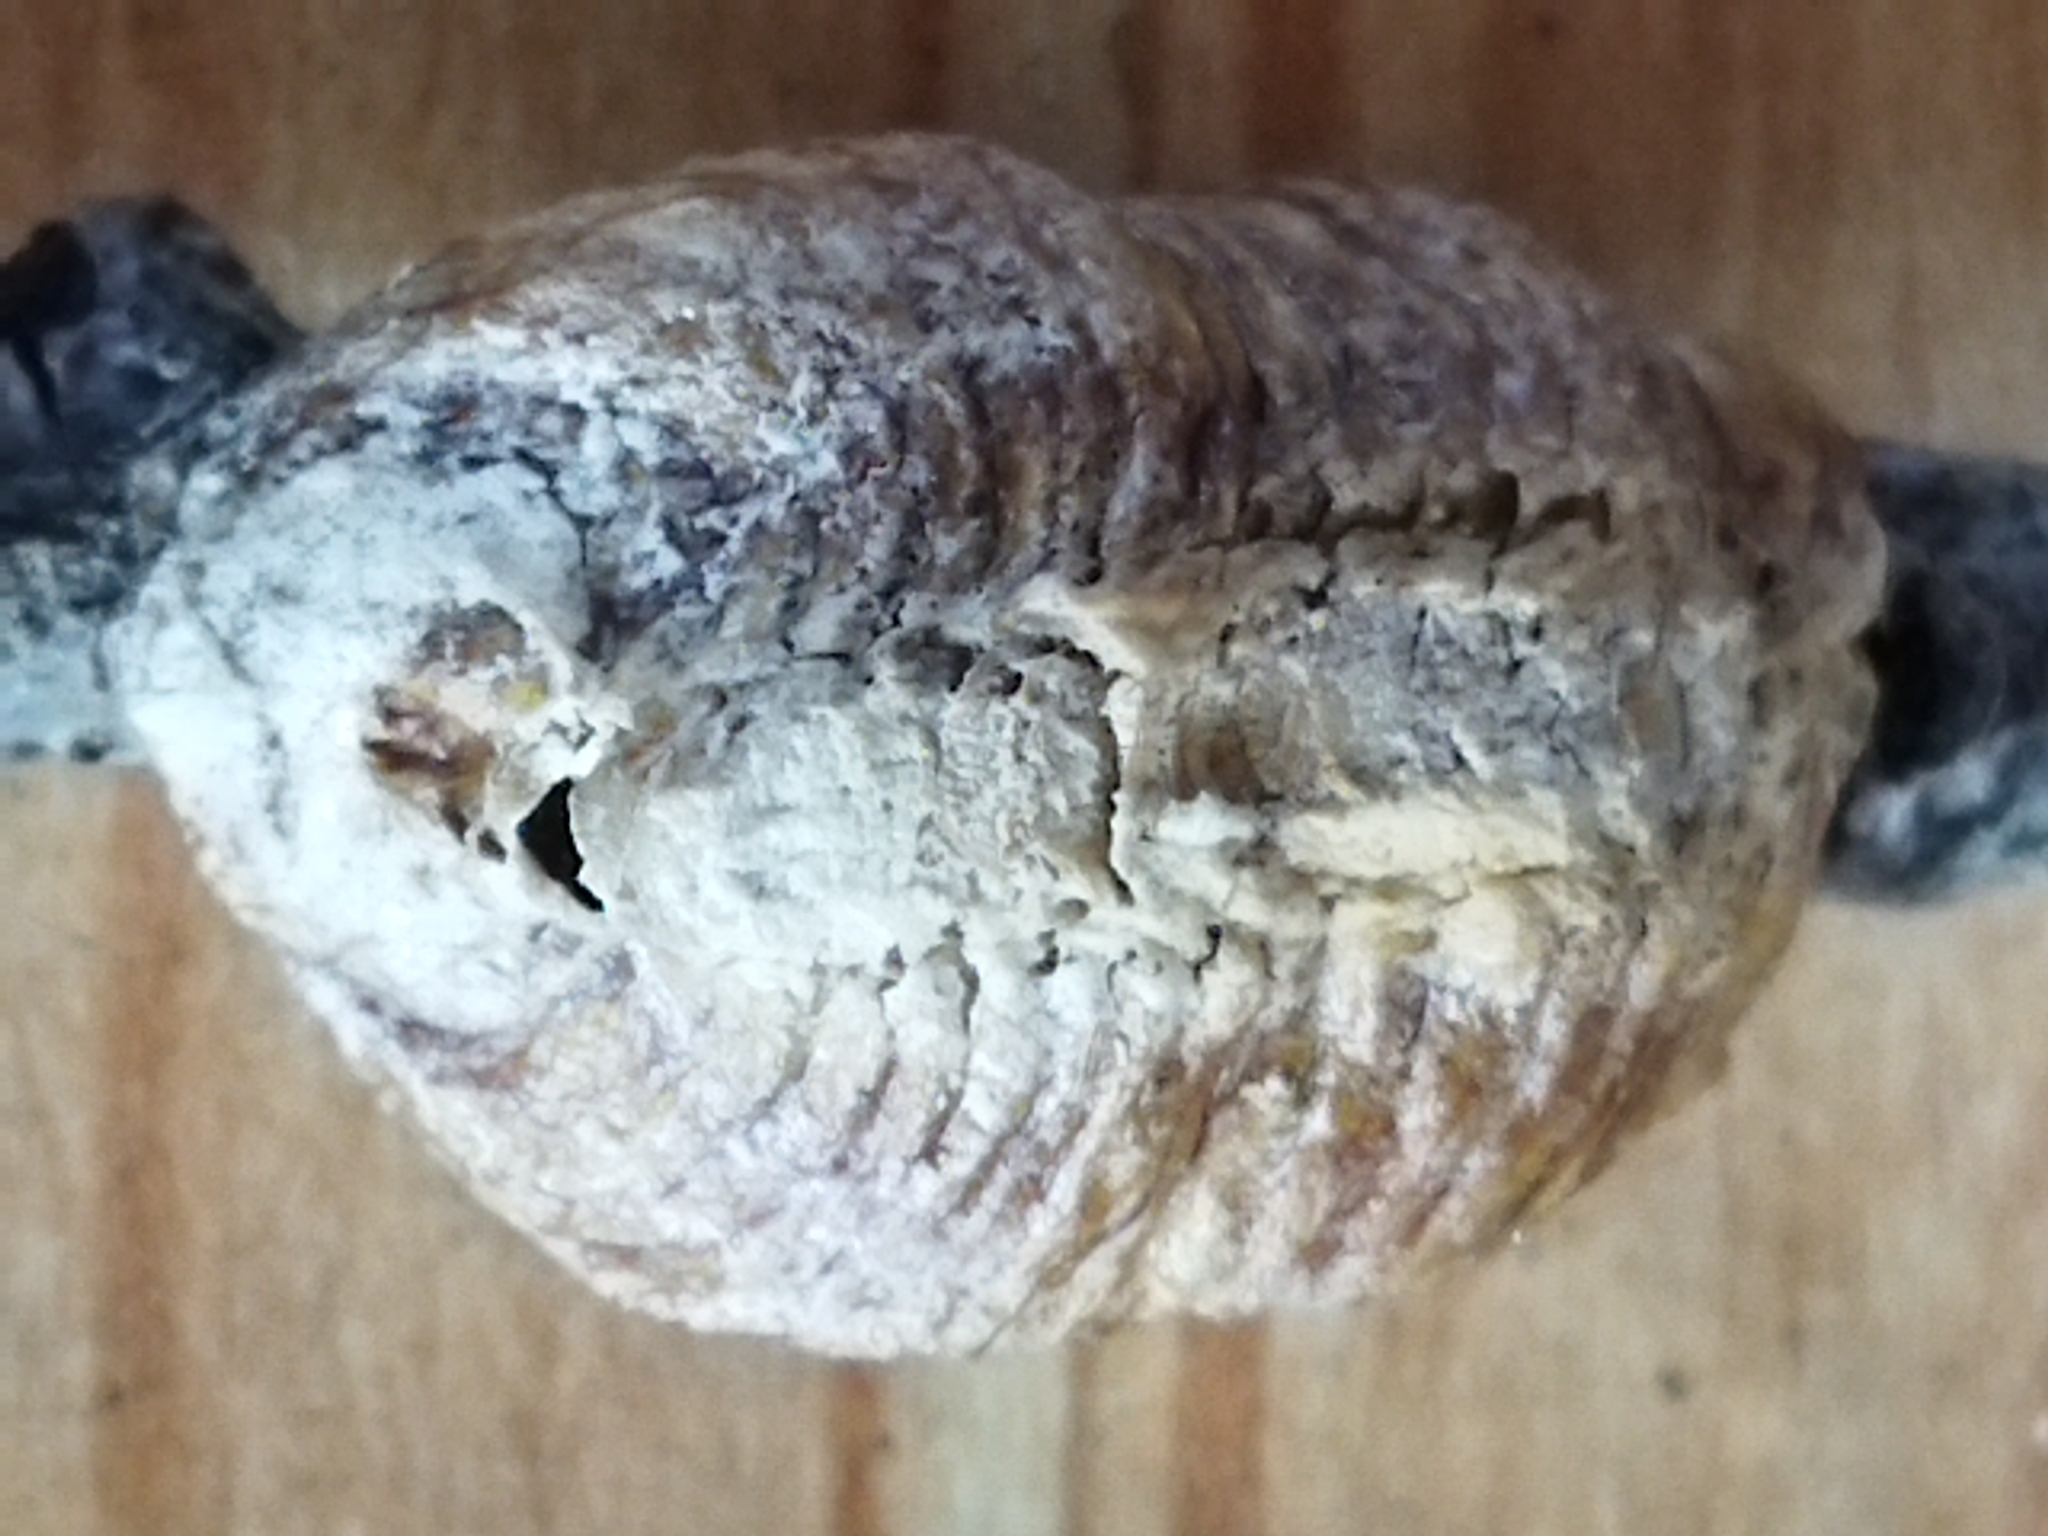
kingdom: Animalia
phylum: Arthropoda
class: Insecta
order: Mantodea
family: Mantidae
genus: Hierodula
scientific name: Hierodula transcaucasica
